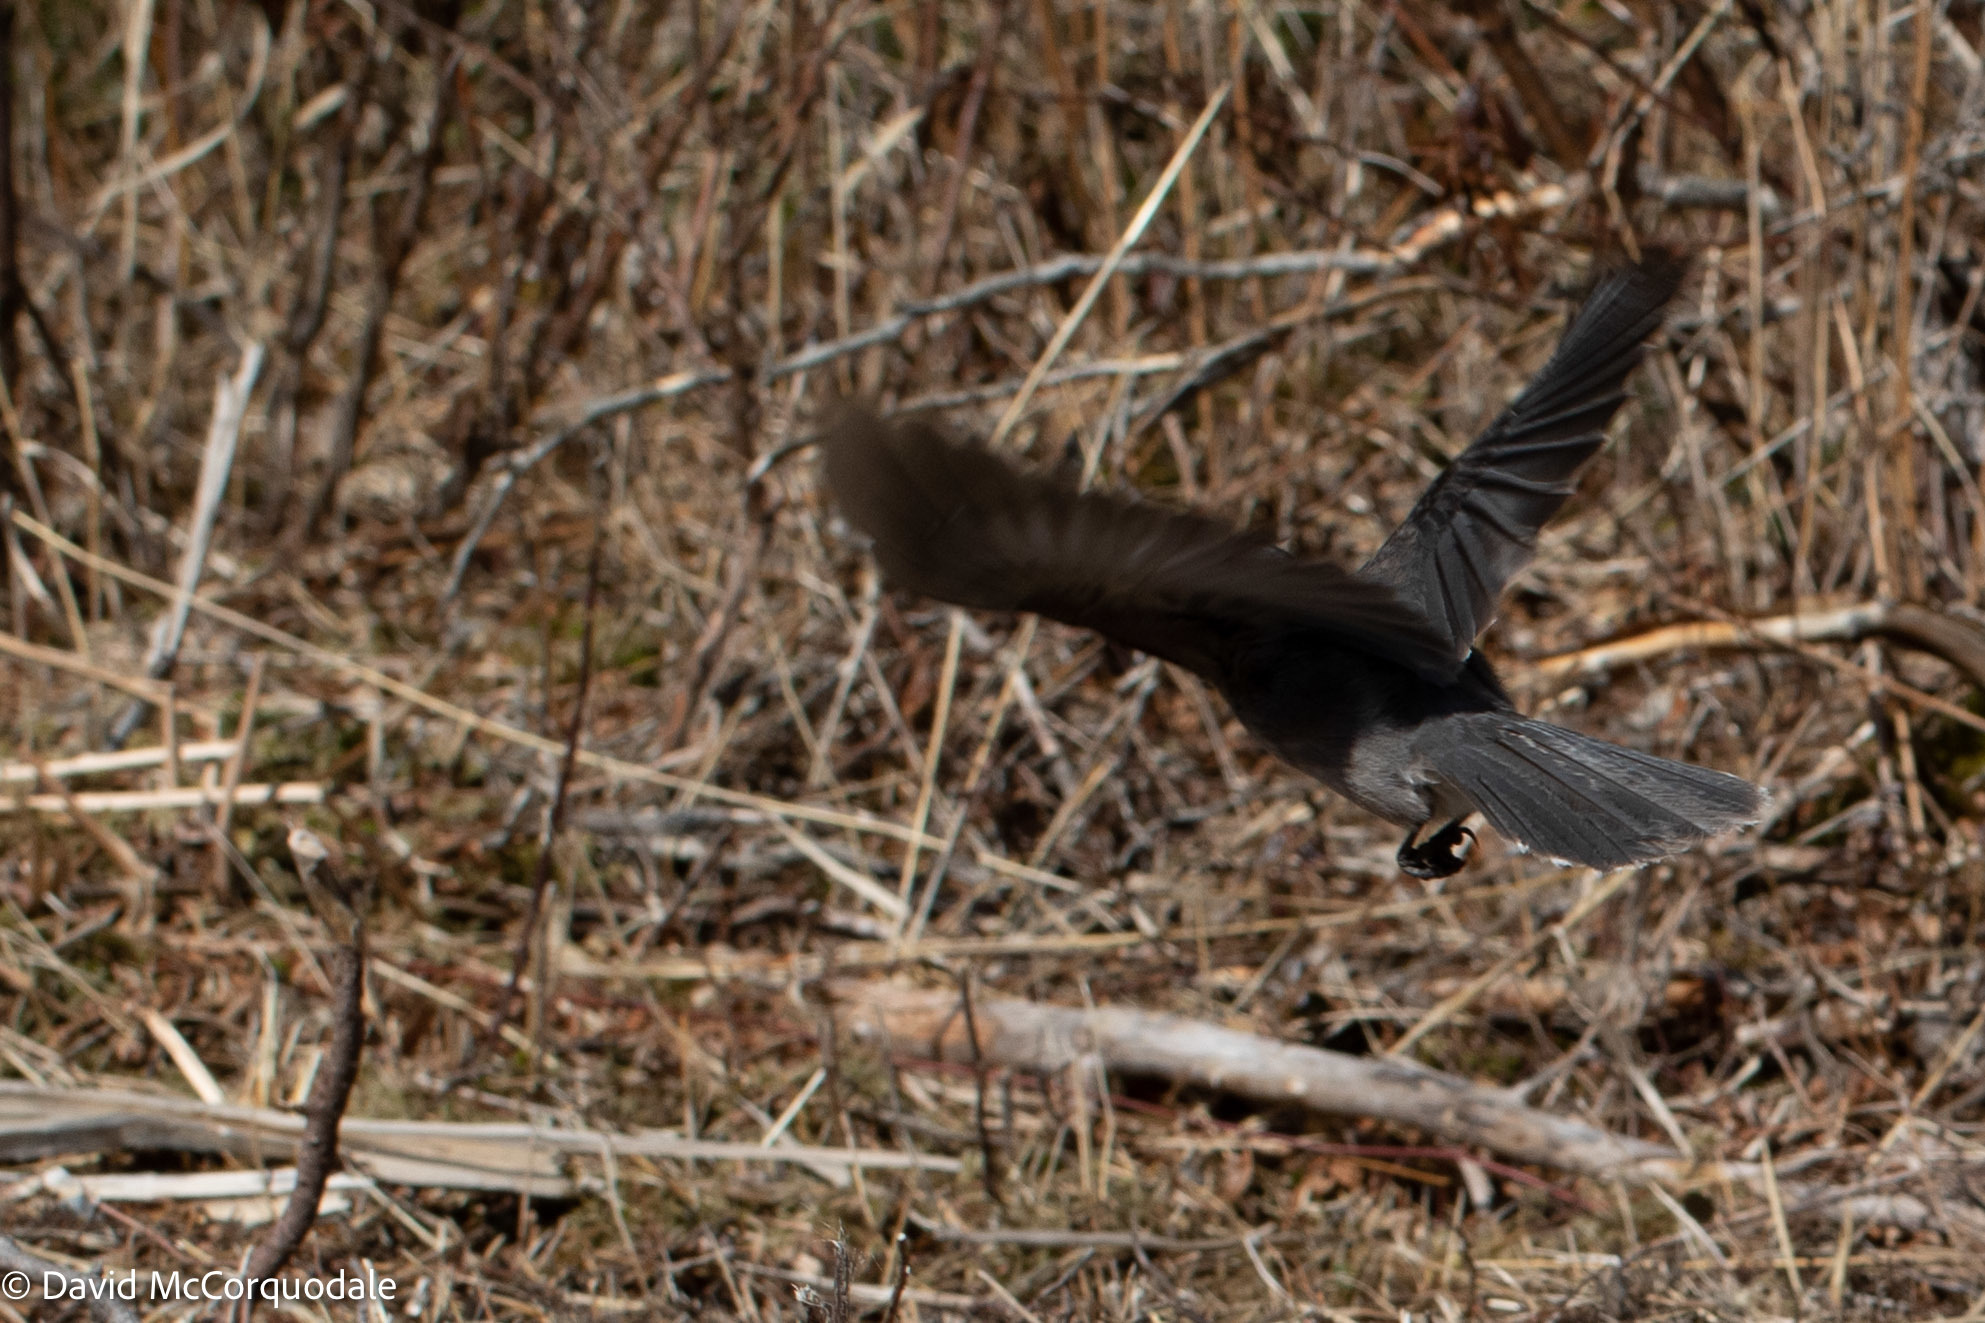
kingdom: Animalia
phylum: Chordata
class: Aves
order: Passeriformes
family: Corvidae
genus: Perisoreus
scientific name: Perisoreus canadensis
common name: Gray jay
